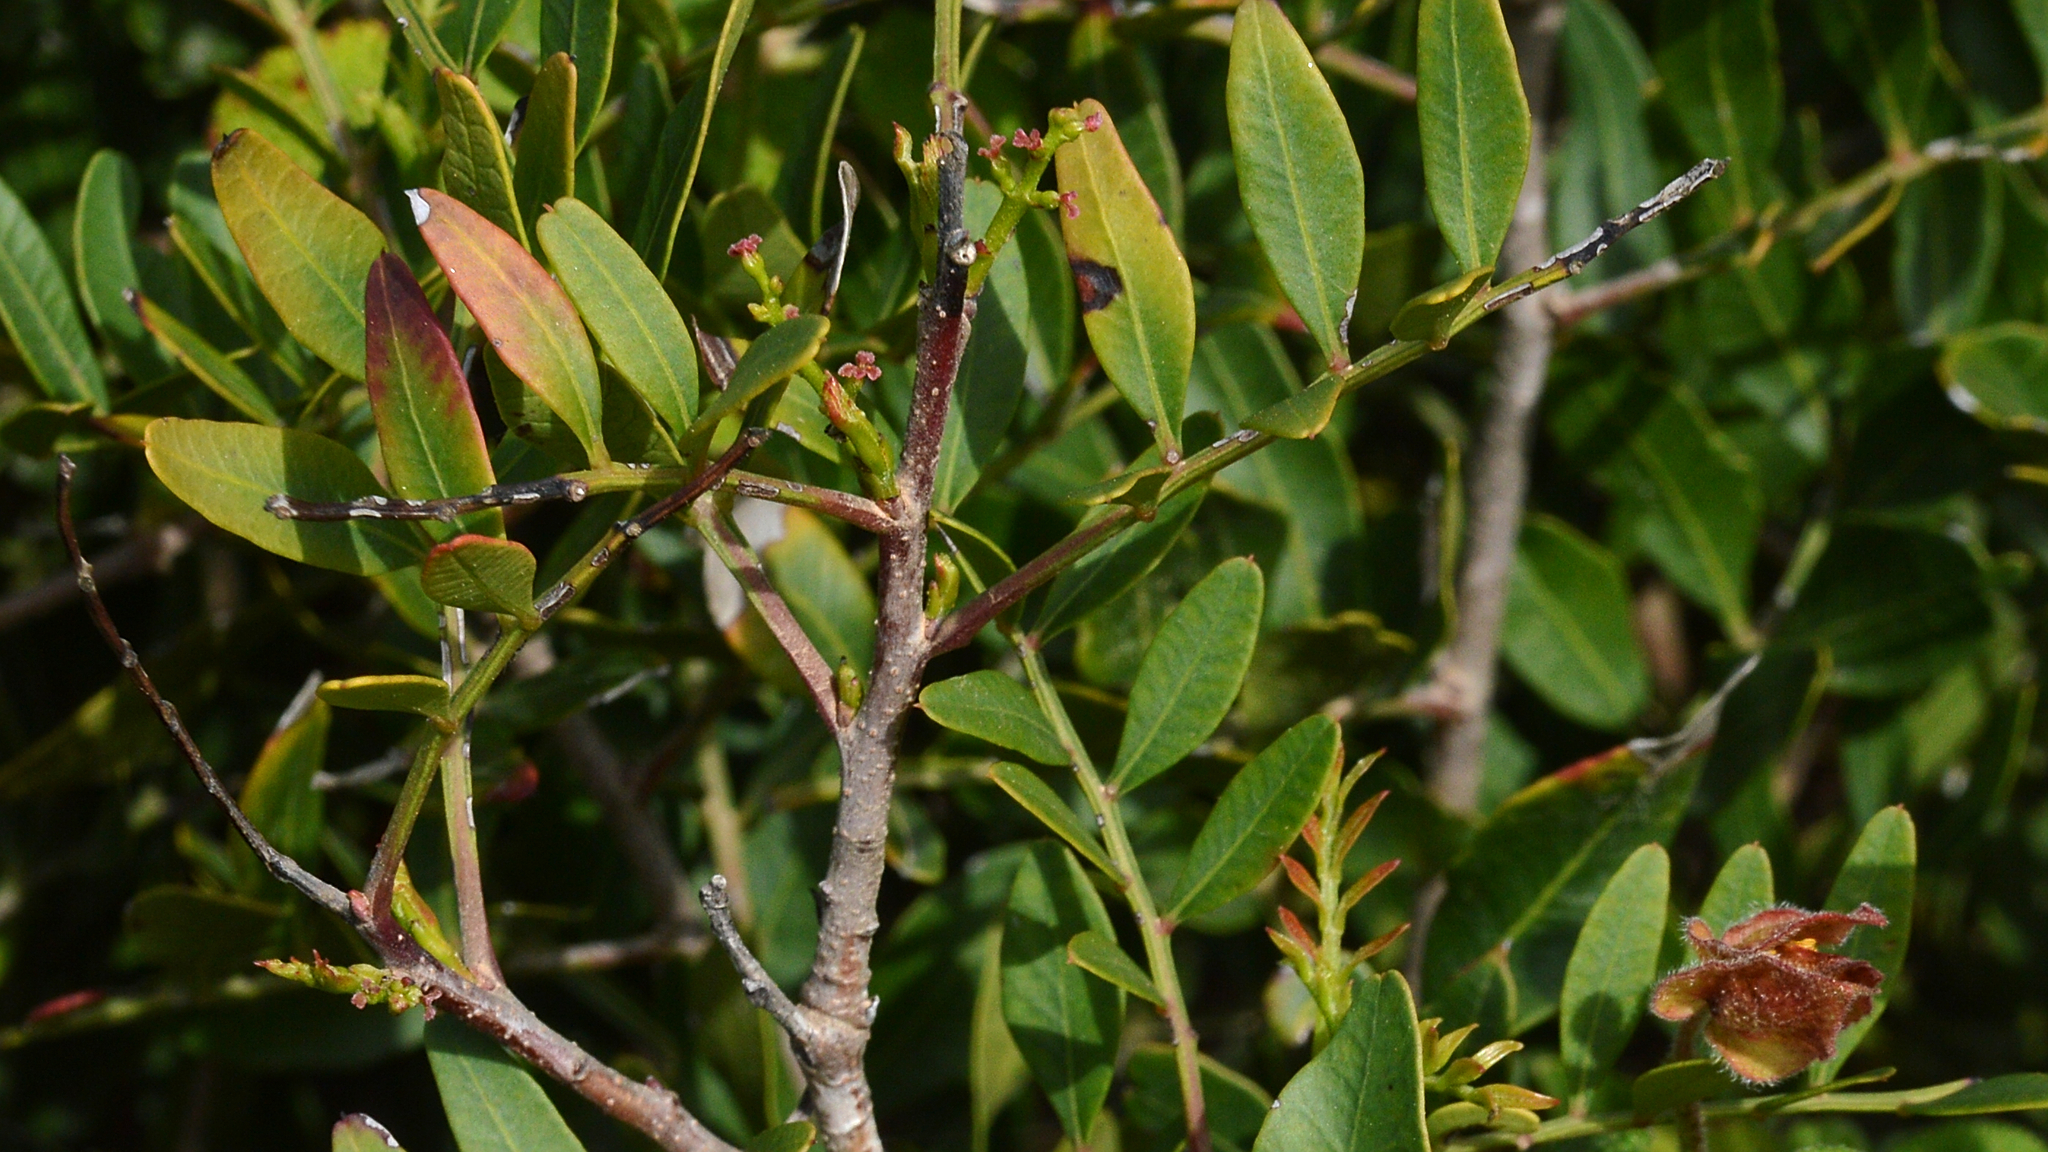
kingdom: Plantae
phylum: Tracheophyta
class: Magnoliopsida
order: Sapindales
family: Anacardiaceae
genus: Pistacia
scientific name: Pistacia lentiscus
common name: Lentisk
